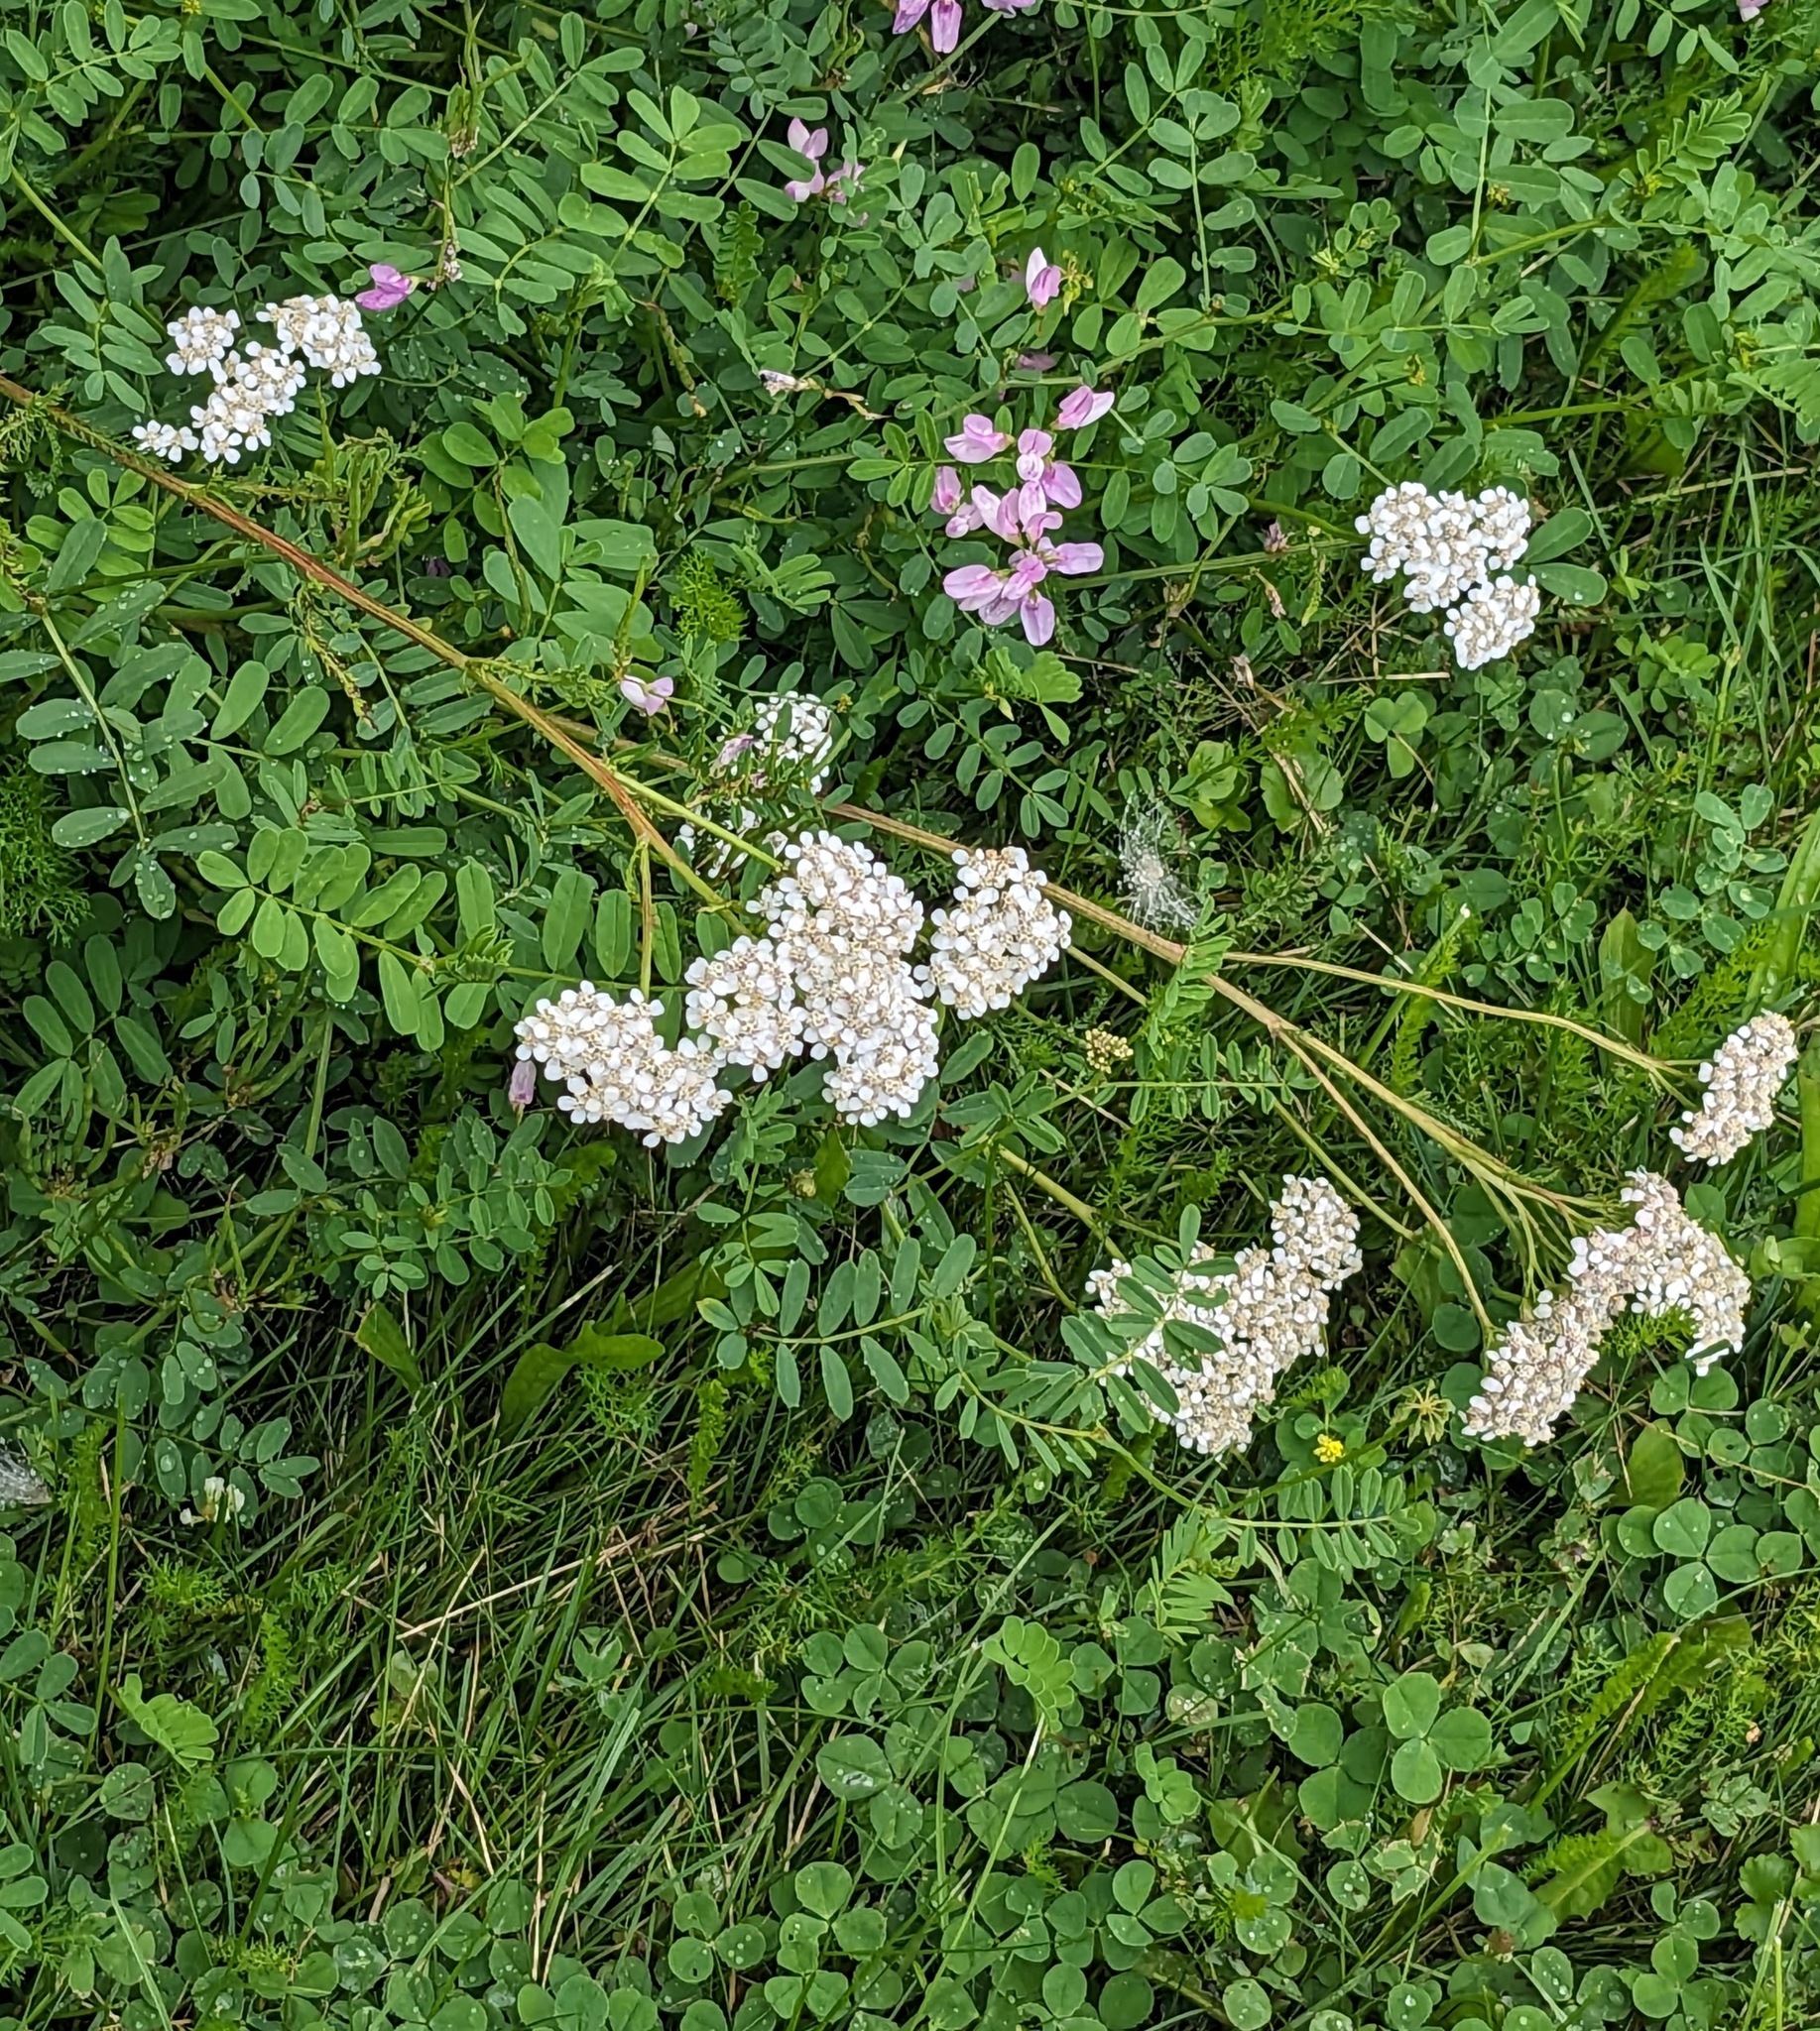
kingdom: Plantae
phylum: Tracheophyta
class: Magnoliopsida
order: Asterales
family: Asteraceae
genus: Achillea
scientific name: Achillea millefolium
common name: Yarrow
